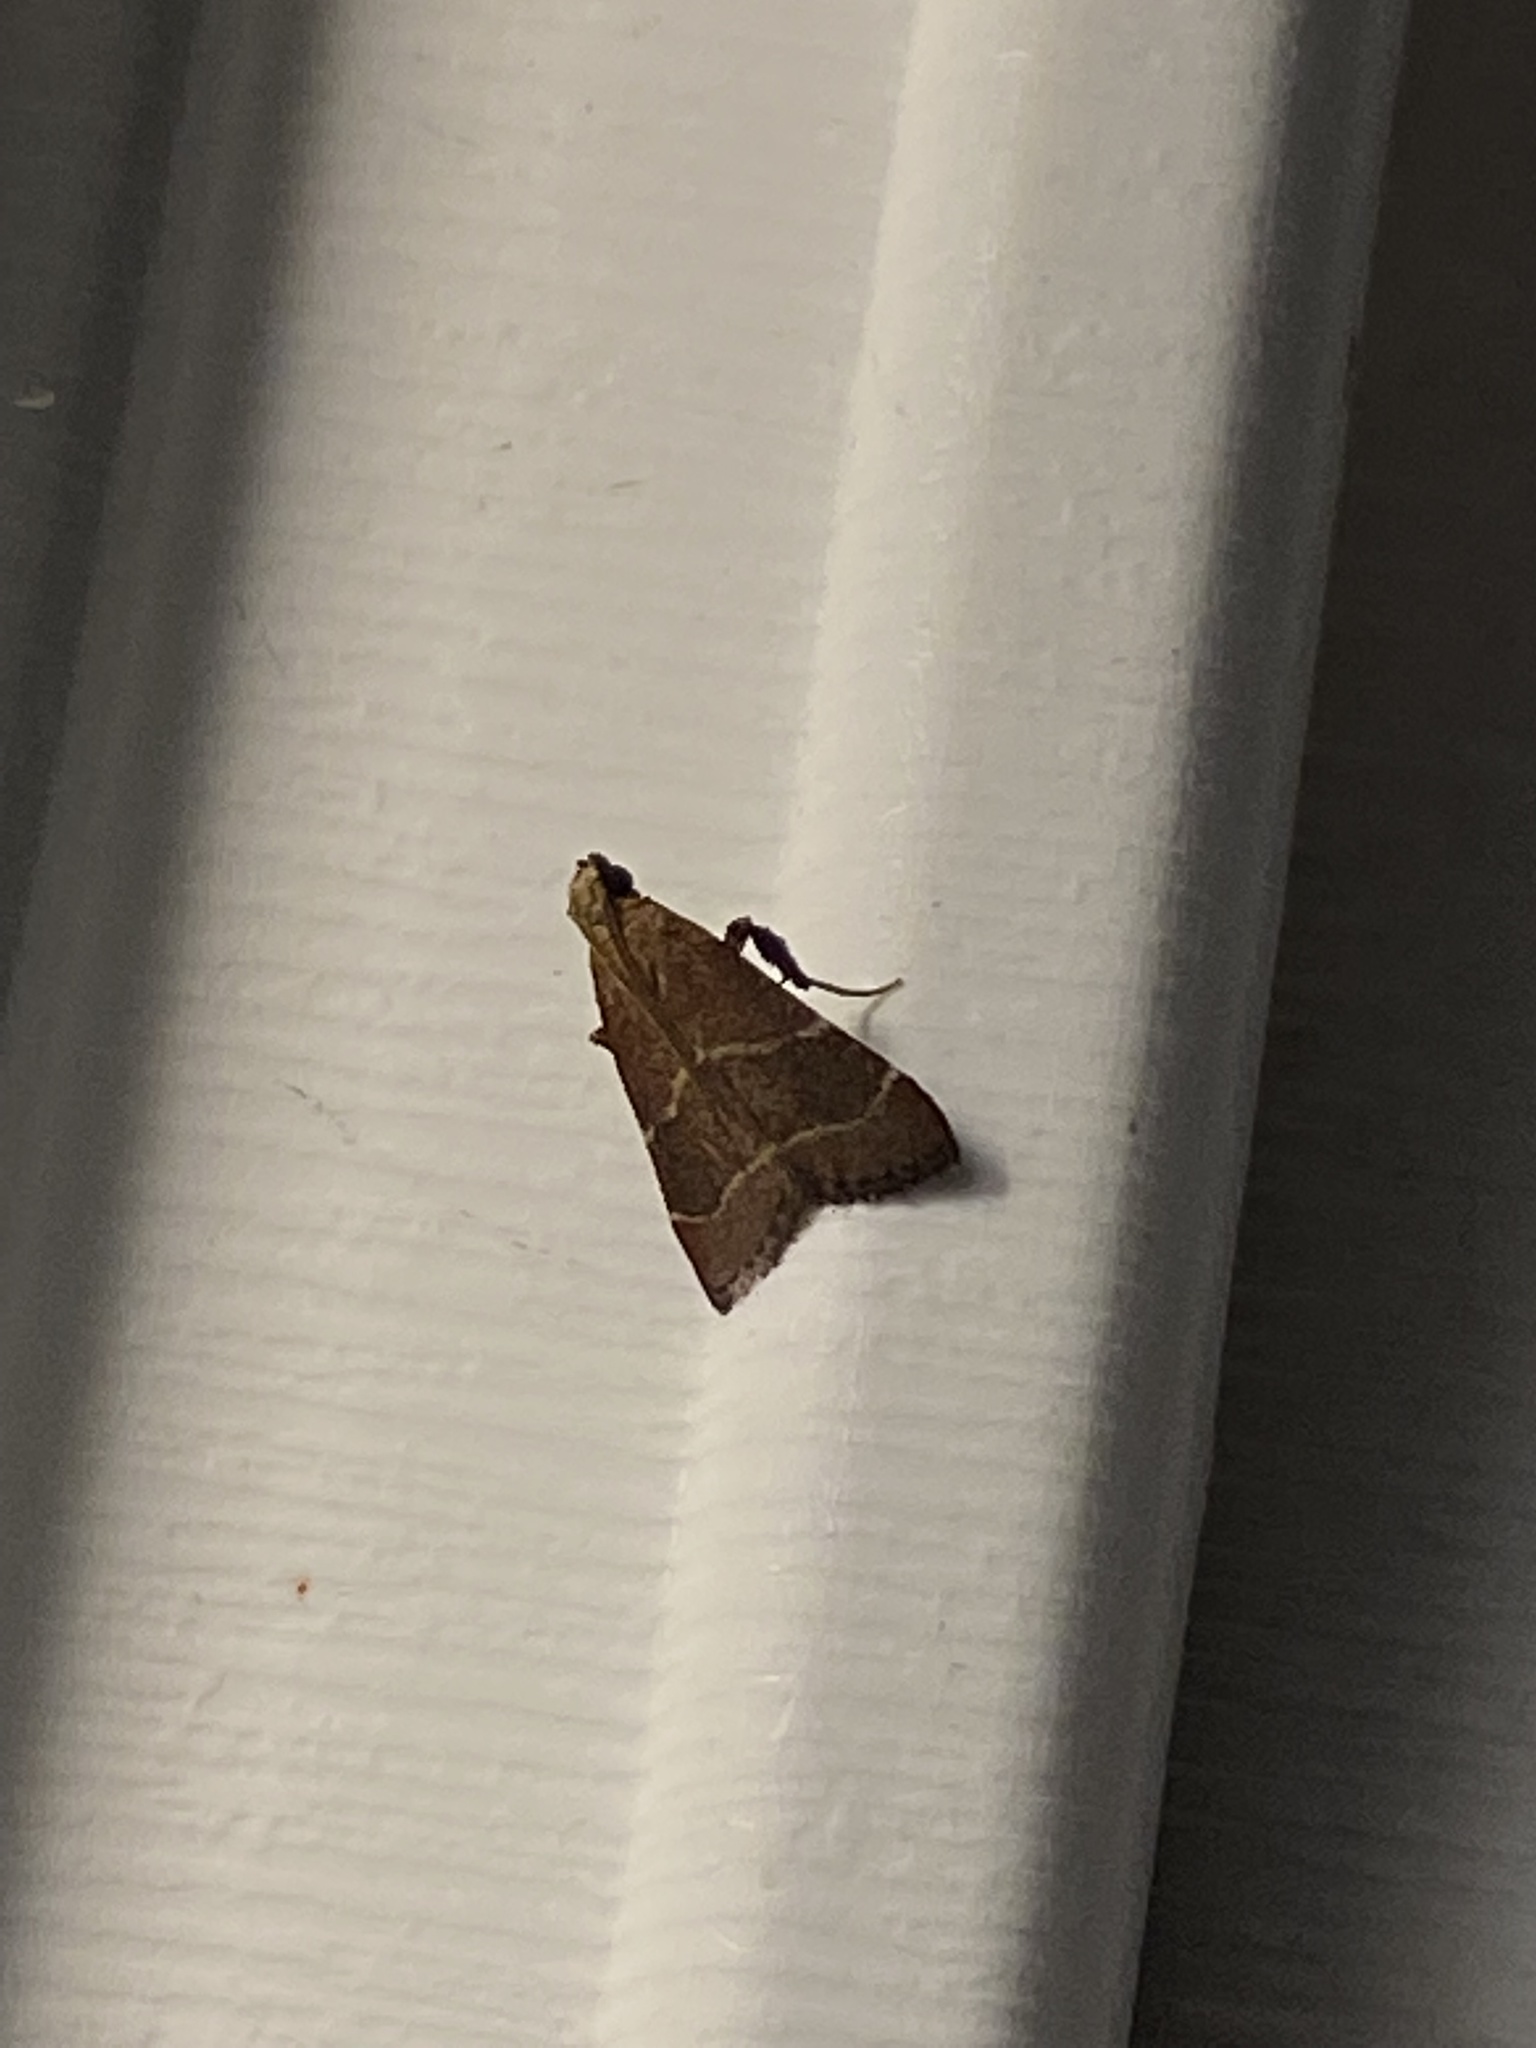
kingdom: Animalia
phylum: Arthropoda
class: Insecta
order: Lepidoptera
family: Pyralidae
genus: Arta
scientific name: Arta statalis
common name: Posturing arta moth
